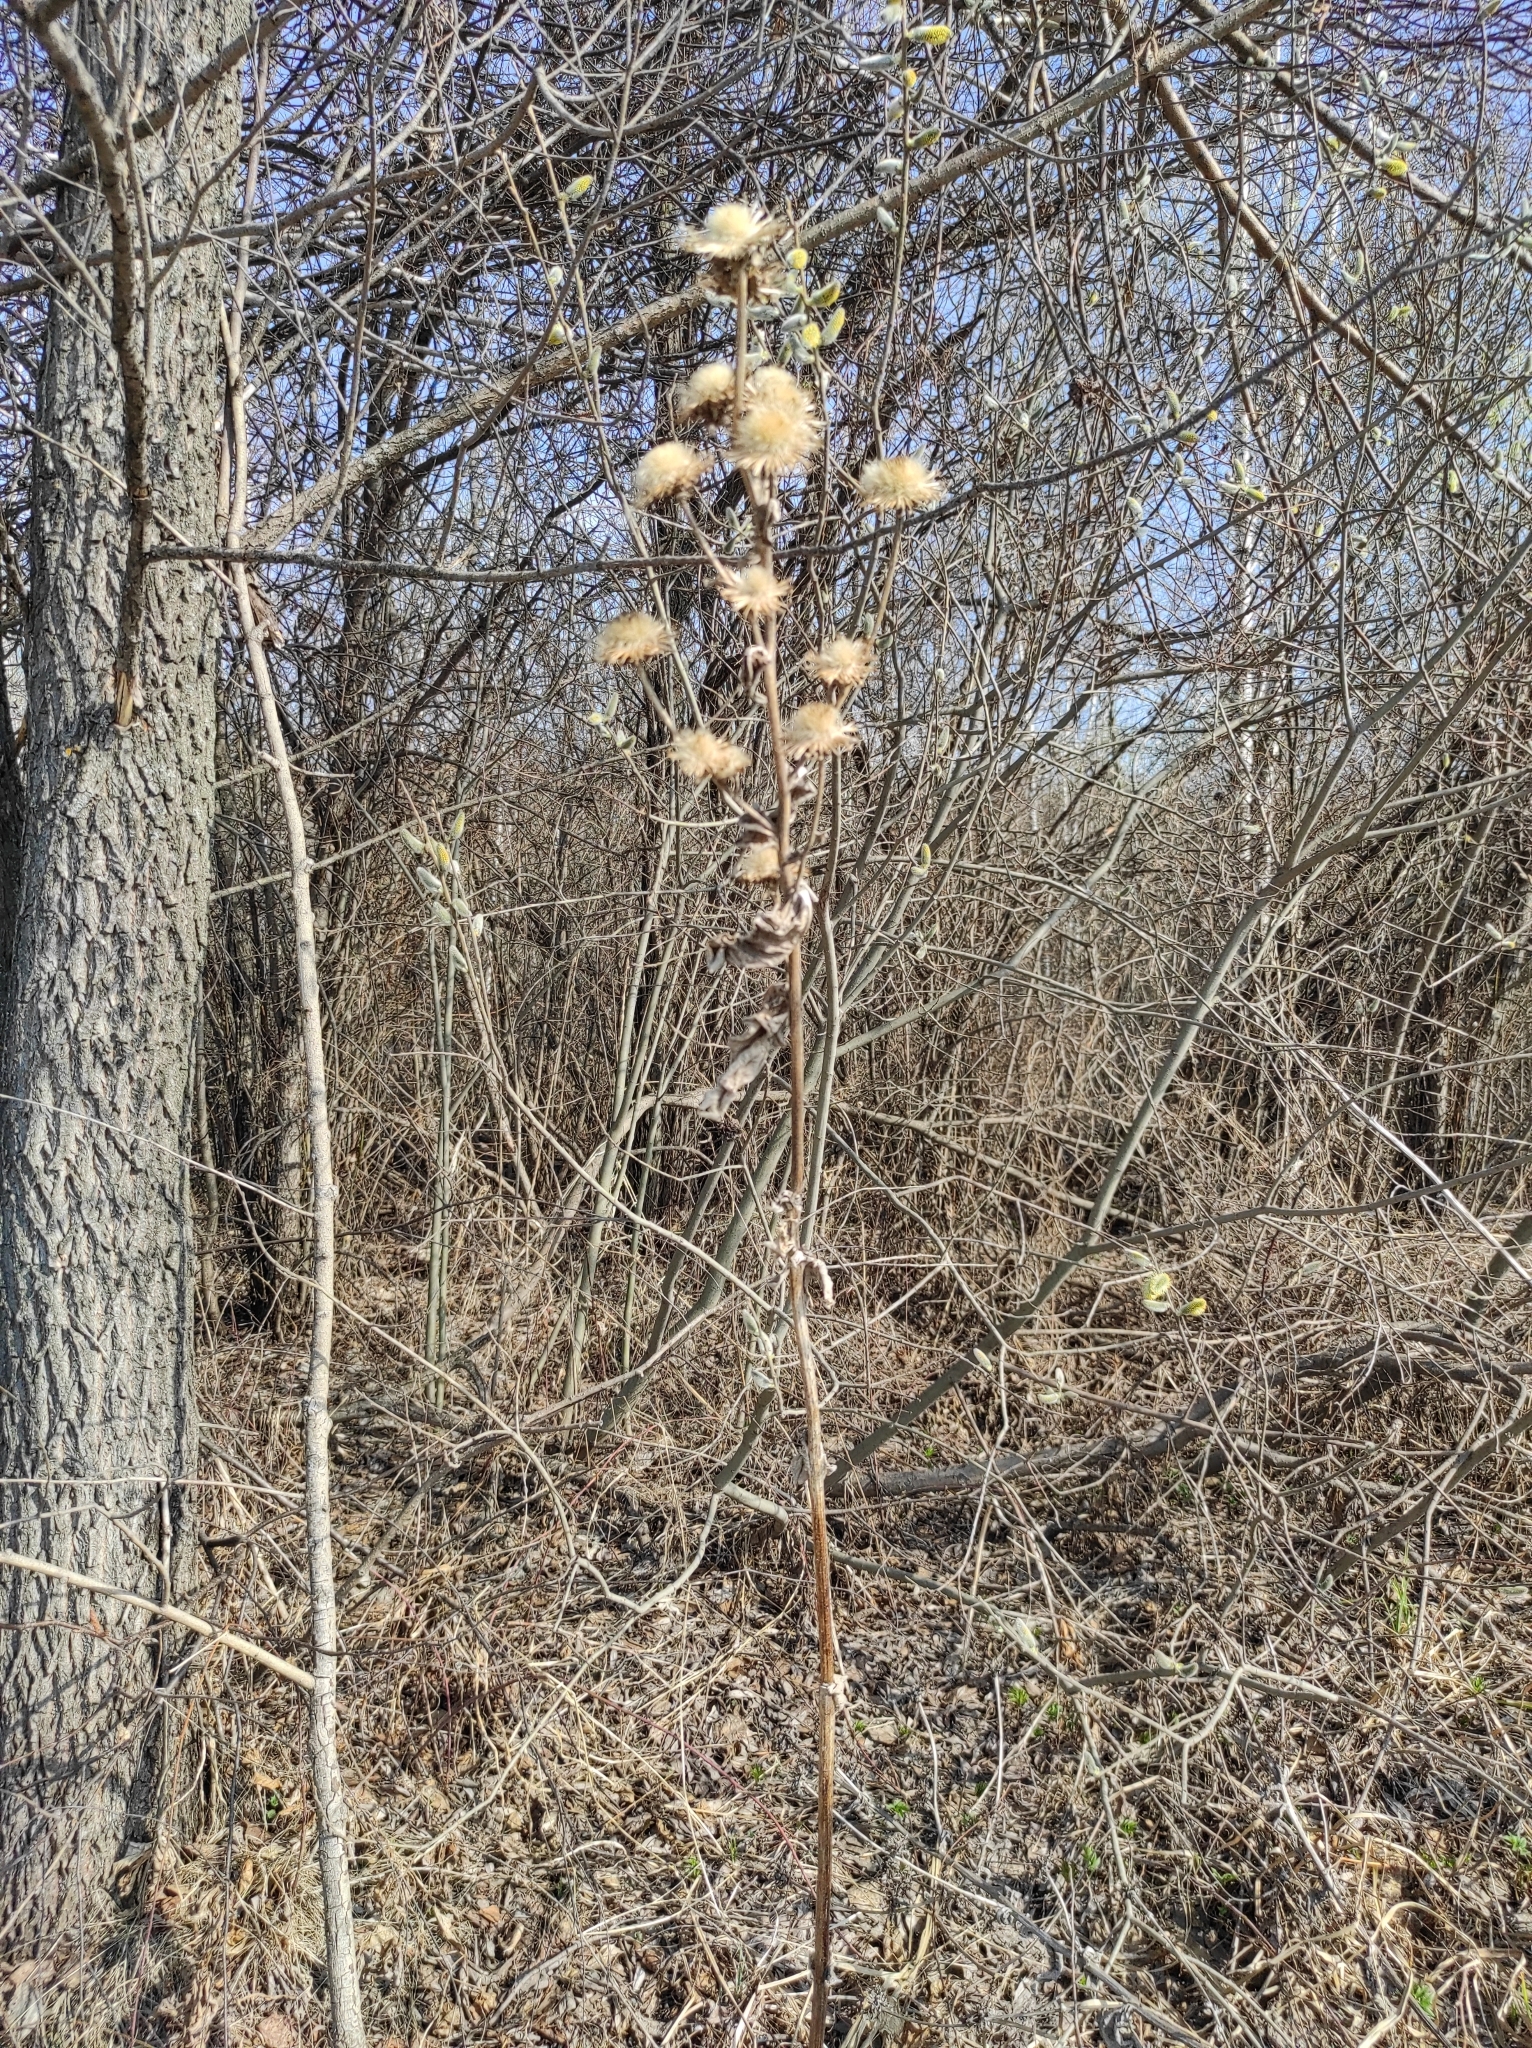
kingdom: Plantae
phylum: Tracheophyta
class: Magnoliopsida
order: Asterales
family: Asteraceae
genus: Inula
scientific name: Inula helenium
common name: Elecampane
